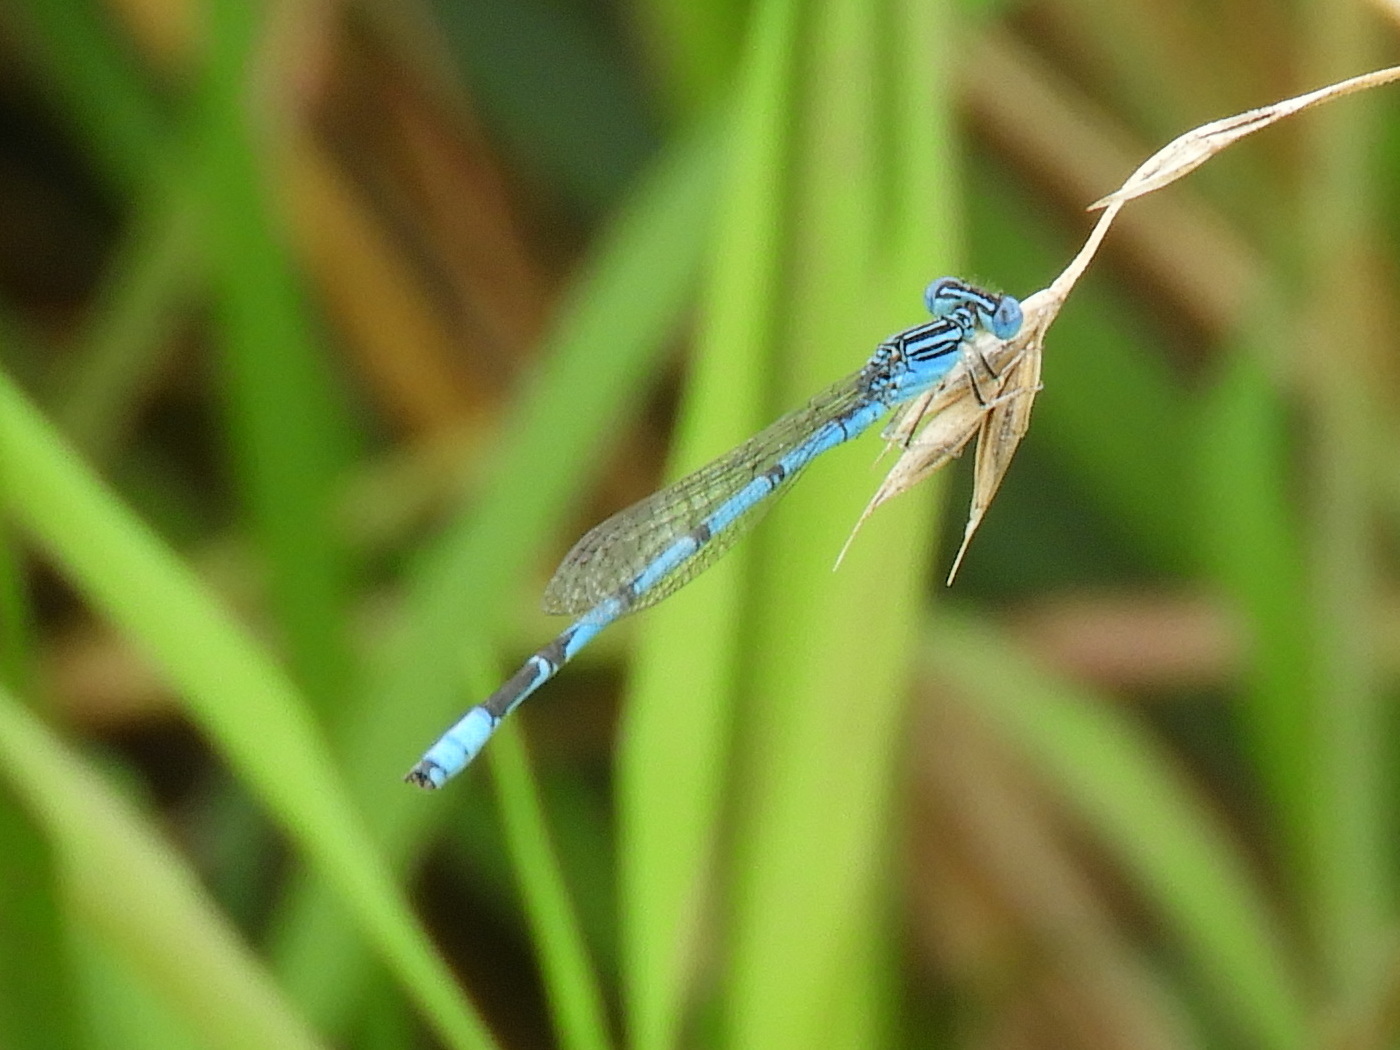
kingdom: Animalia
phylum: Arthropoda
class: Insecta
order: Odonata
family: Coenagrionidae
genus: Enallagma
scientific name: Enallagma basidens
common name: Double-striped bluet
